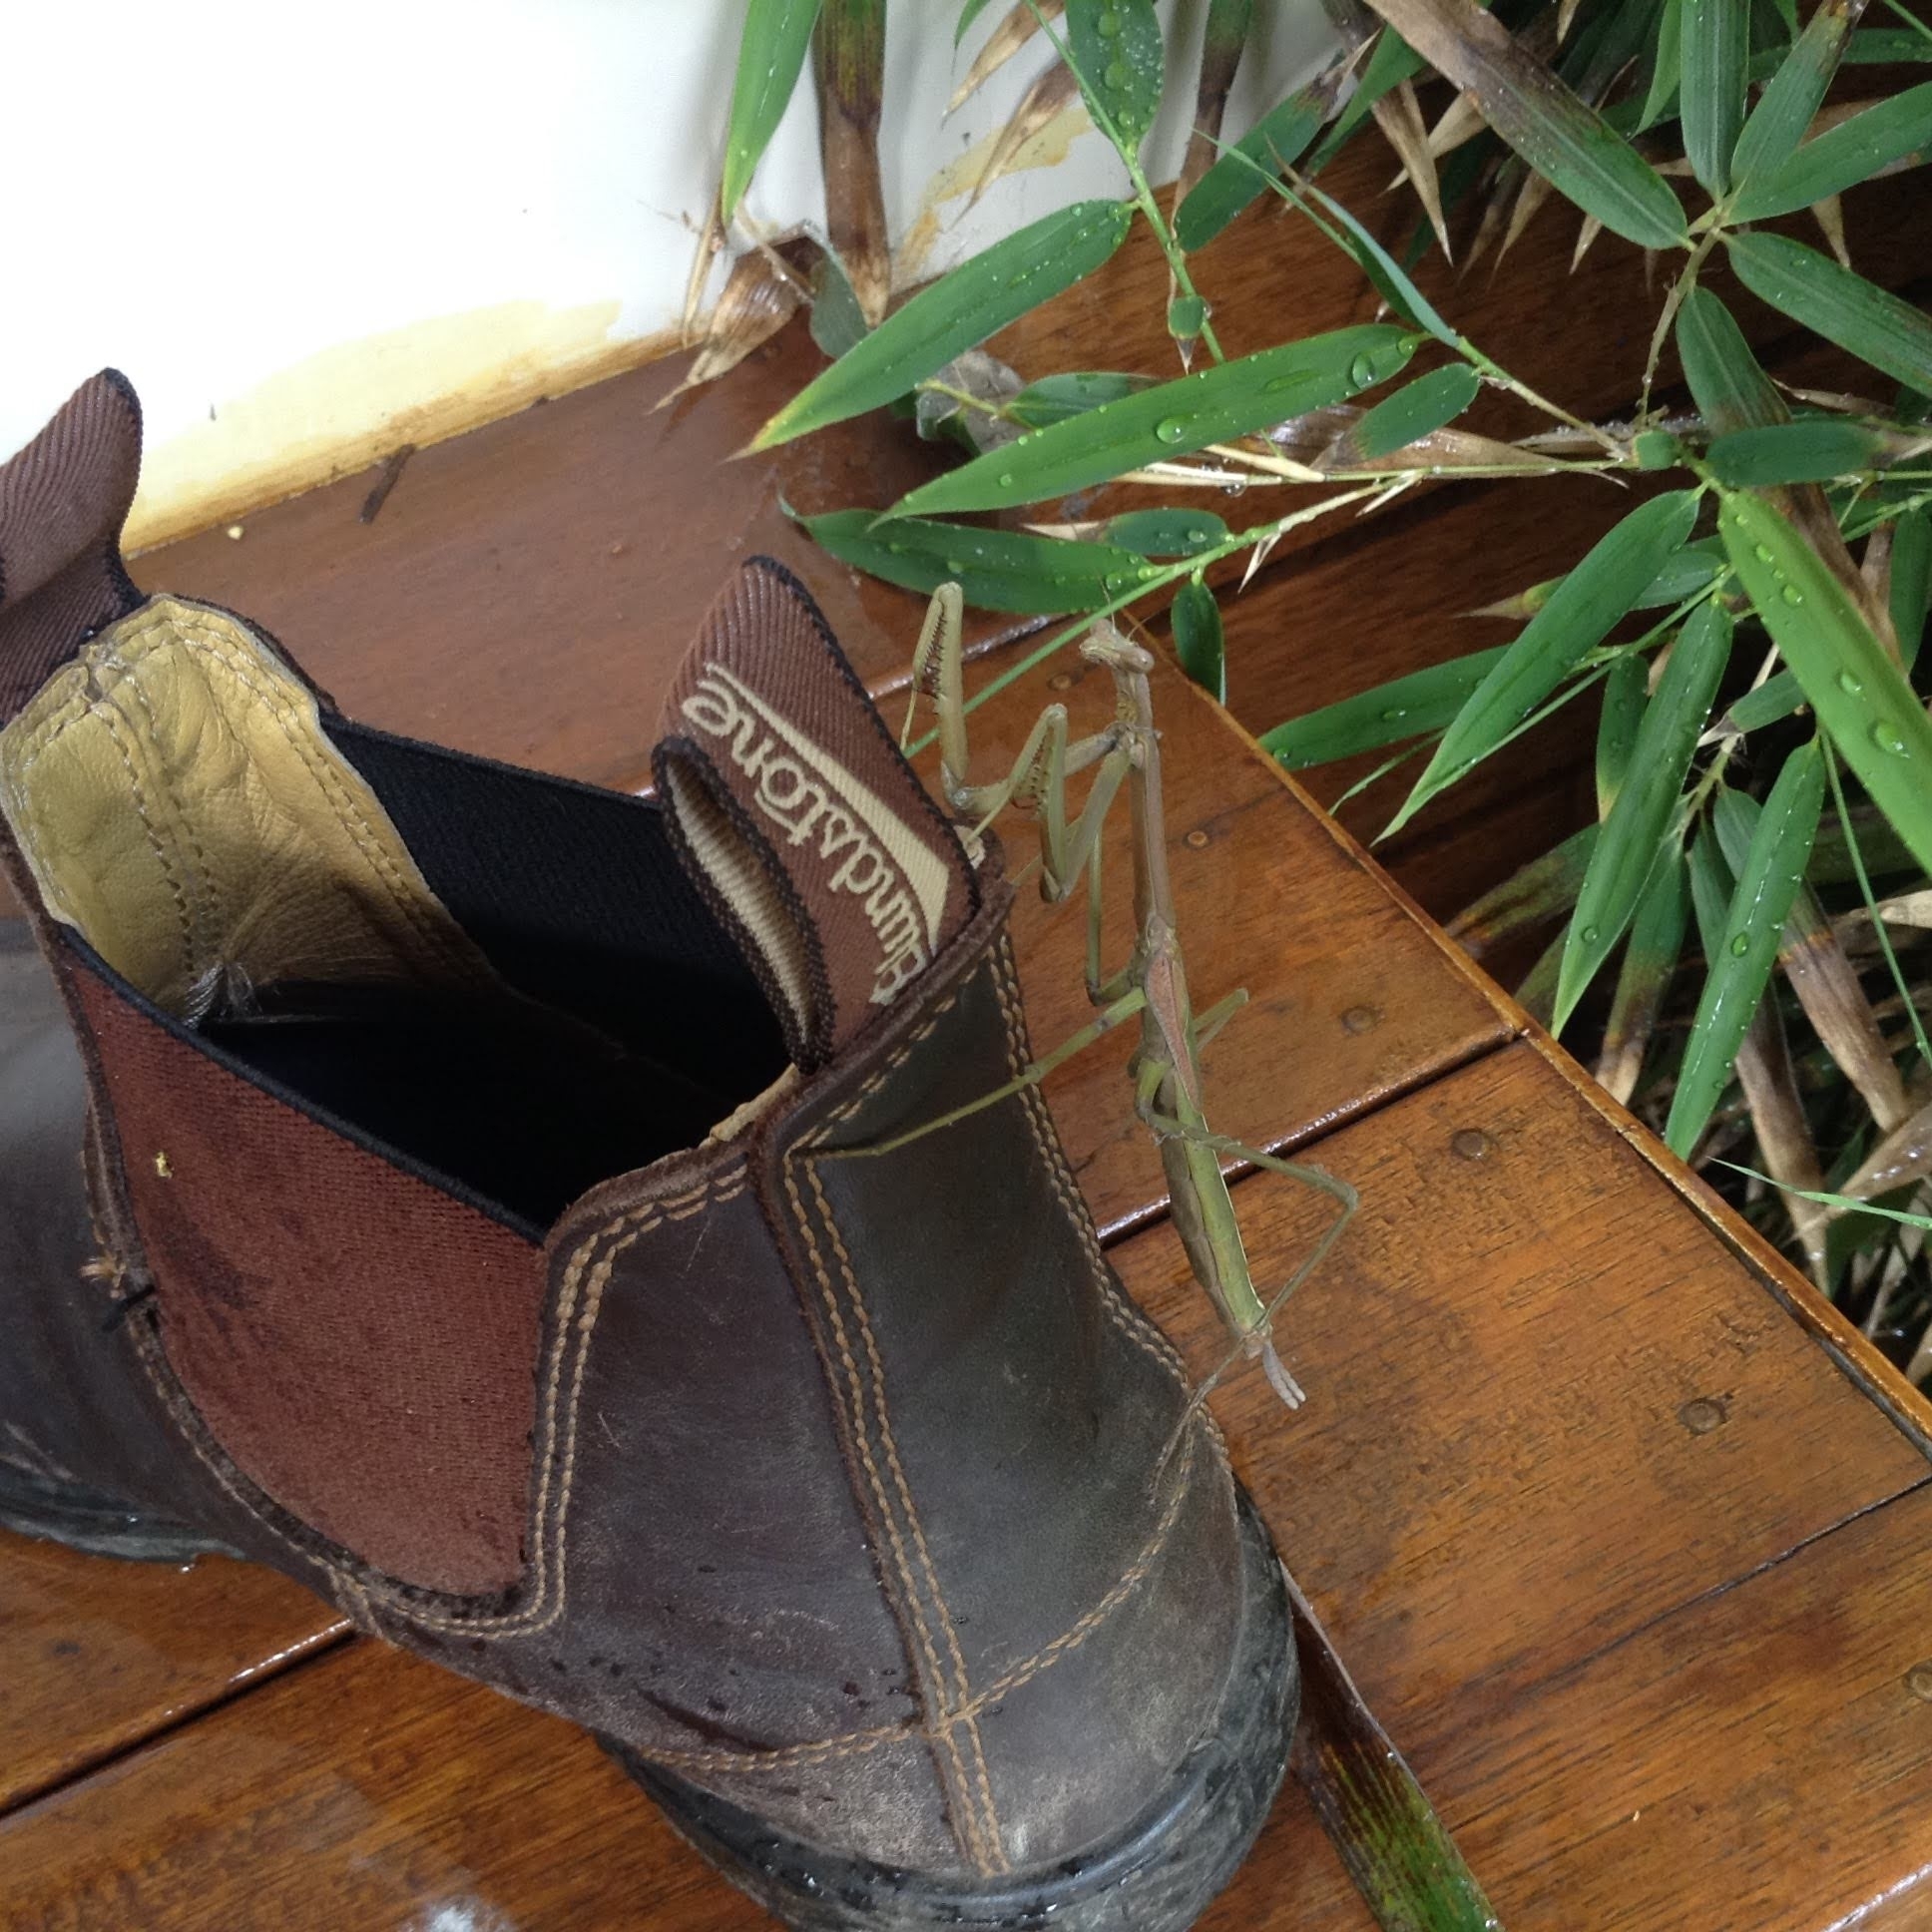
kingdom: Animalia
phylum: Arthropoda
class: Insecta
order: Mantodea
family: Mantidae
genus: Archimantis
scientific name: Archimantis sobrina
